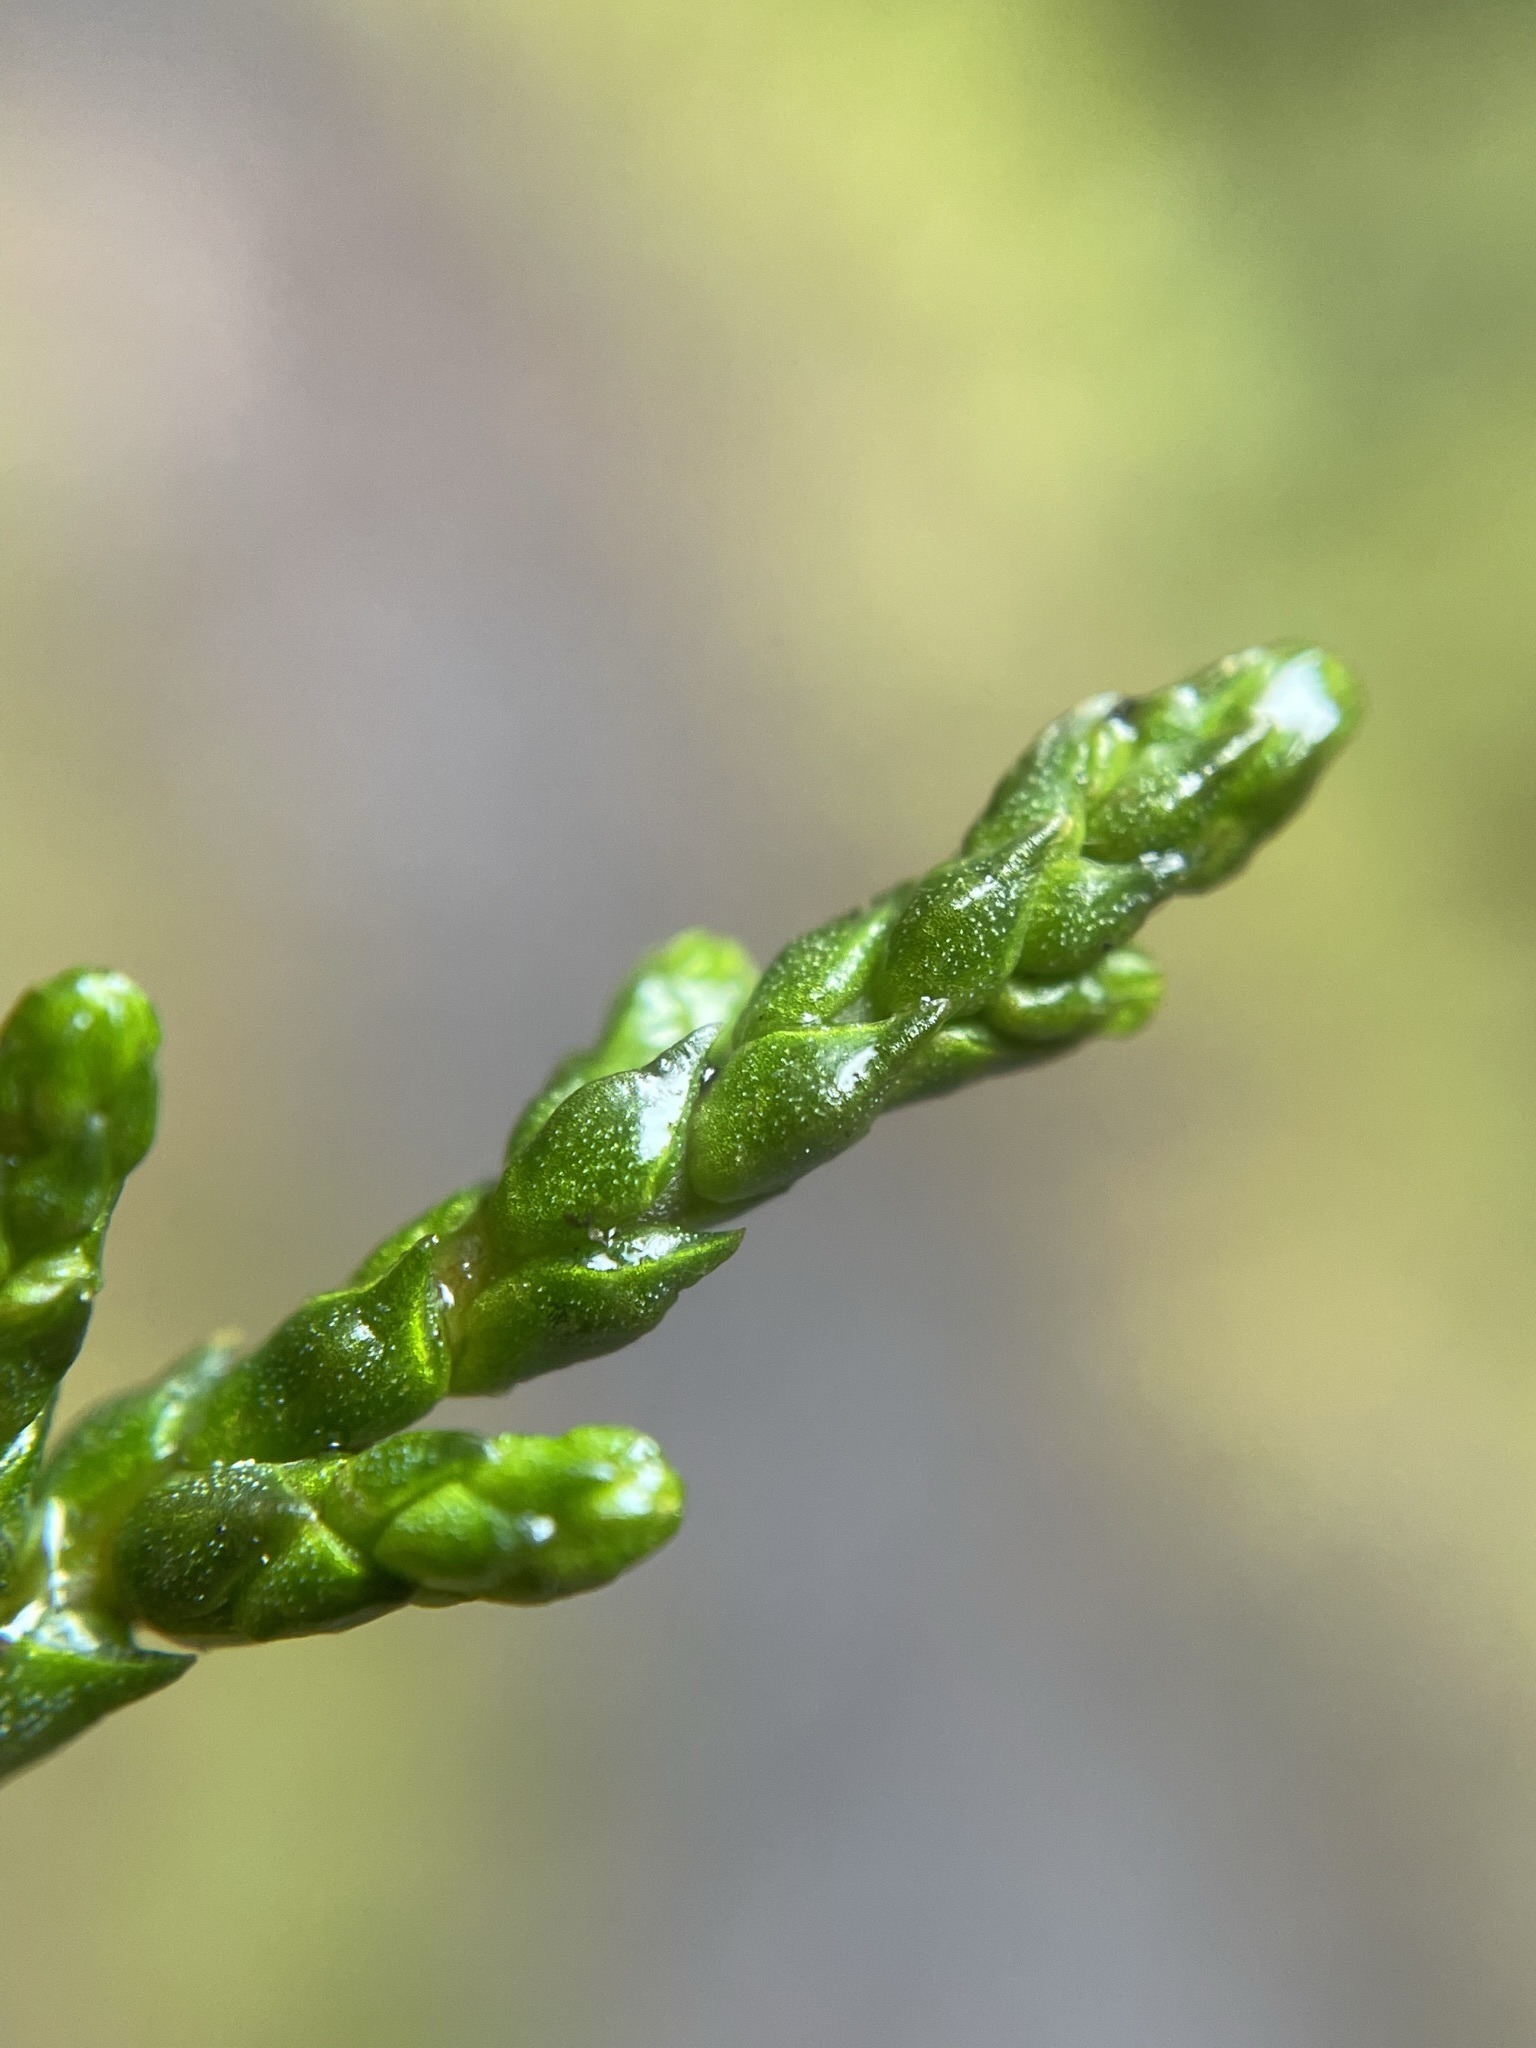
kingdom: Plantae
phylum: Tracheophyta
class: Pinopsida
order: Pinales
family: Podocarpaceae
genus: Manoao
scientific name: Manoao colensoi
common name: Silver pine
